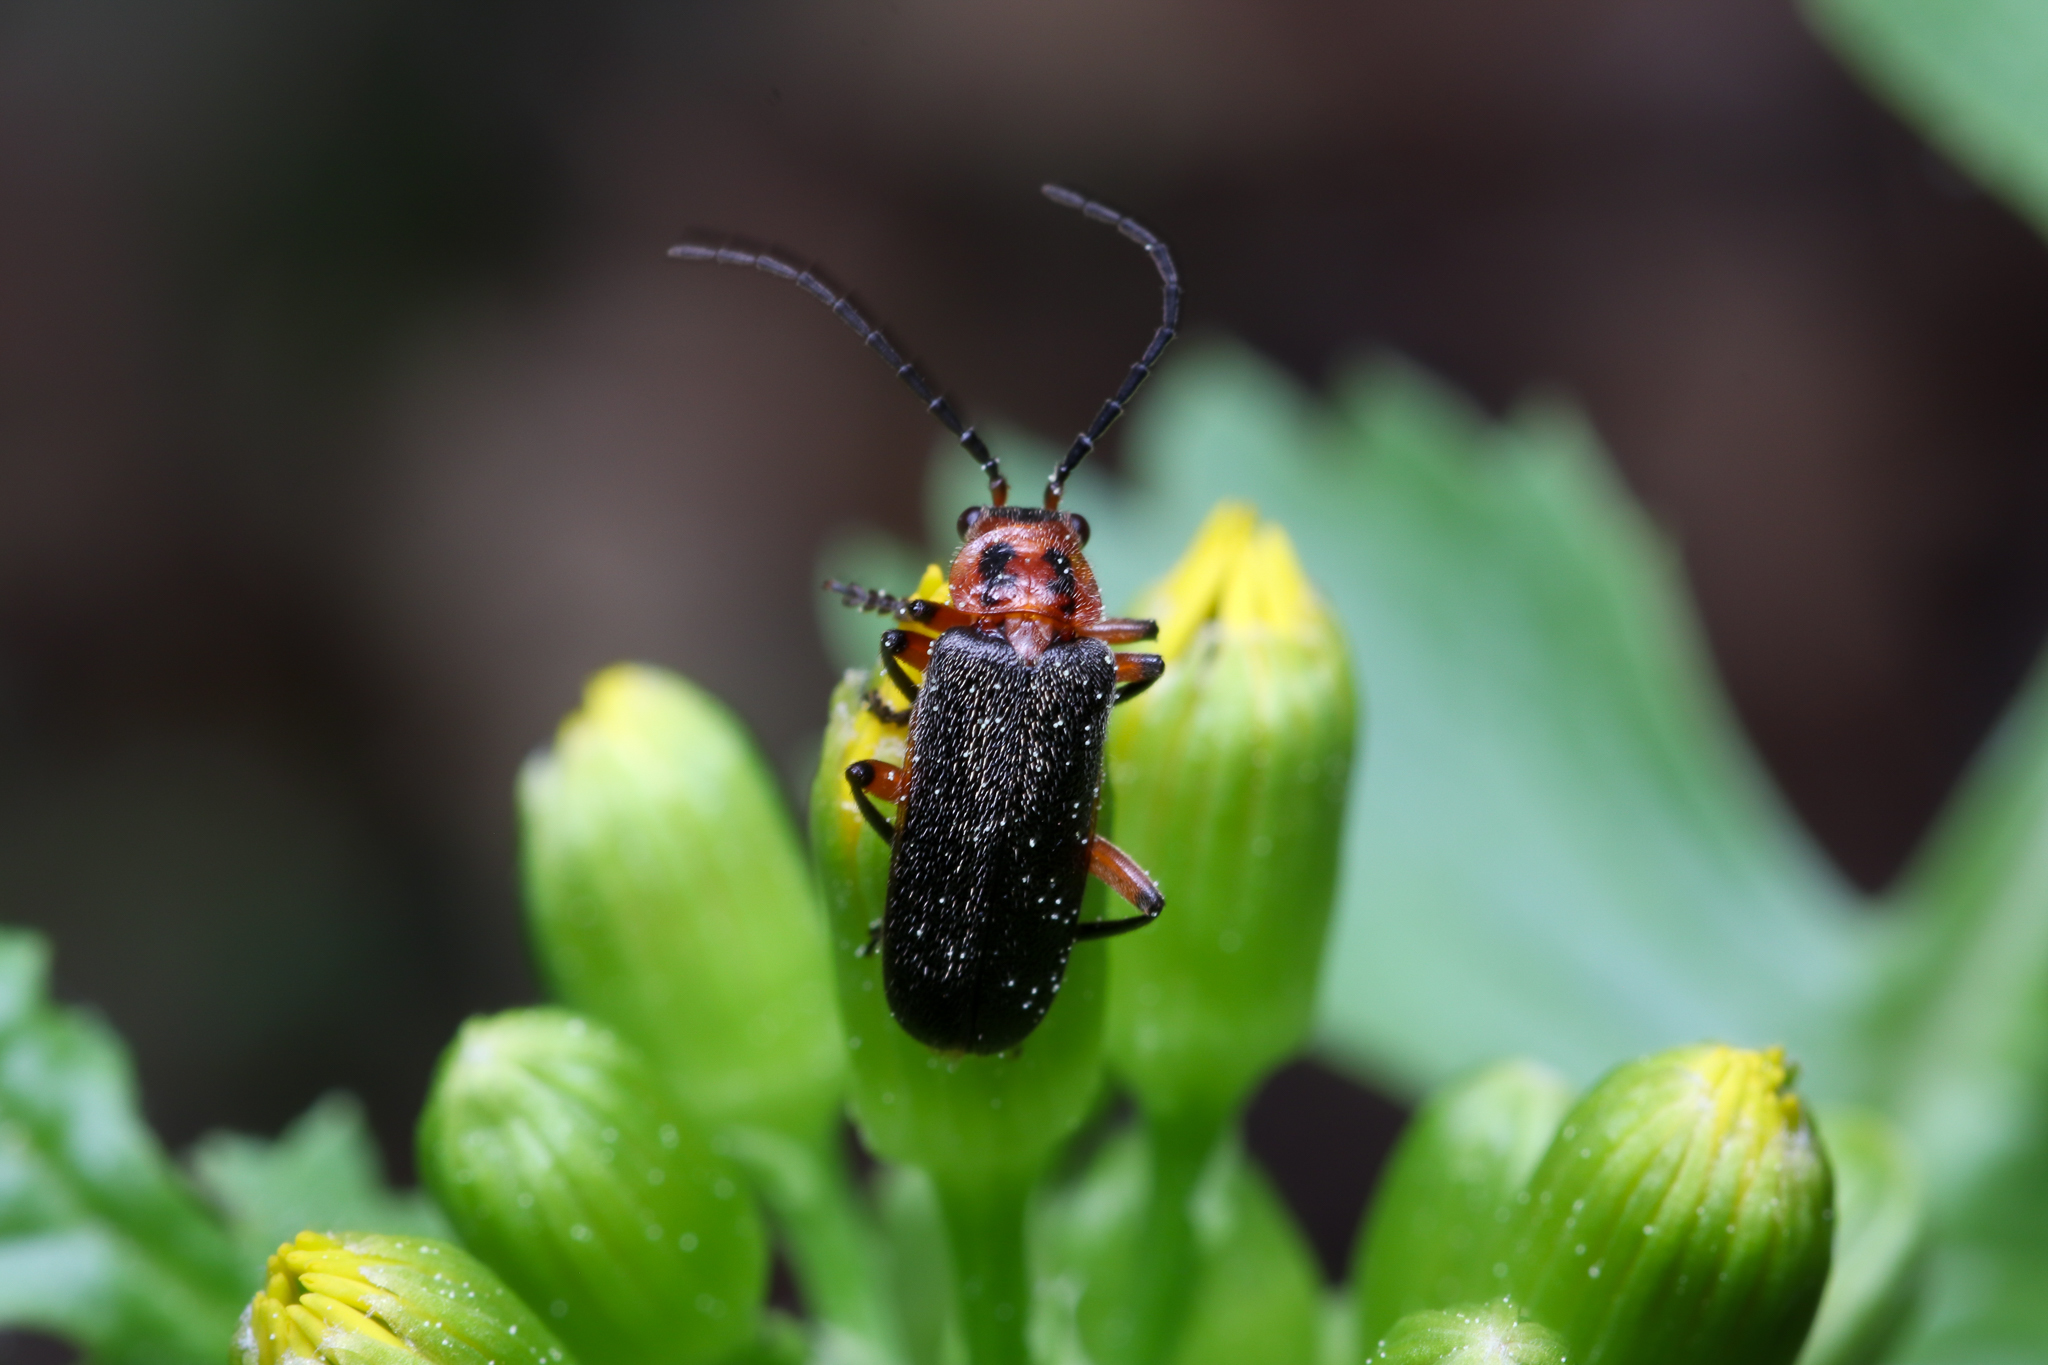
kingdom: Animalia
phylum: Arthropoda
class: Insecta
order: Coleoptera
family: Cantharidae
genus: Atalantycha
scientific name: Atalantycha bilineata
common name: Two-lined leatherwing
